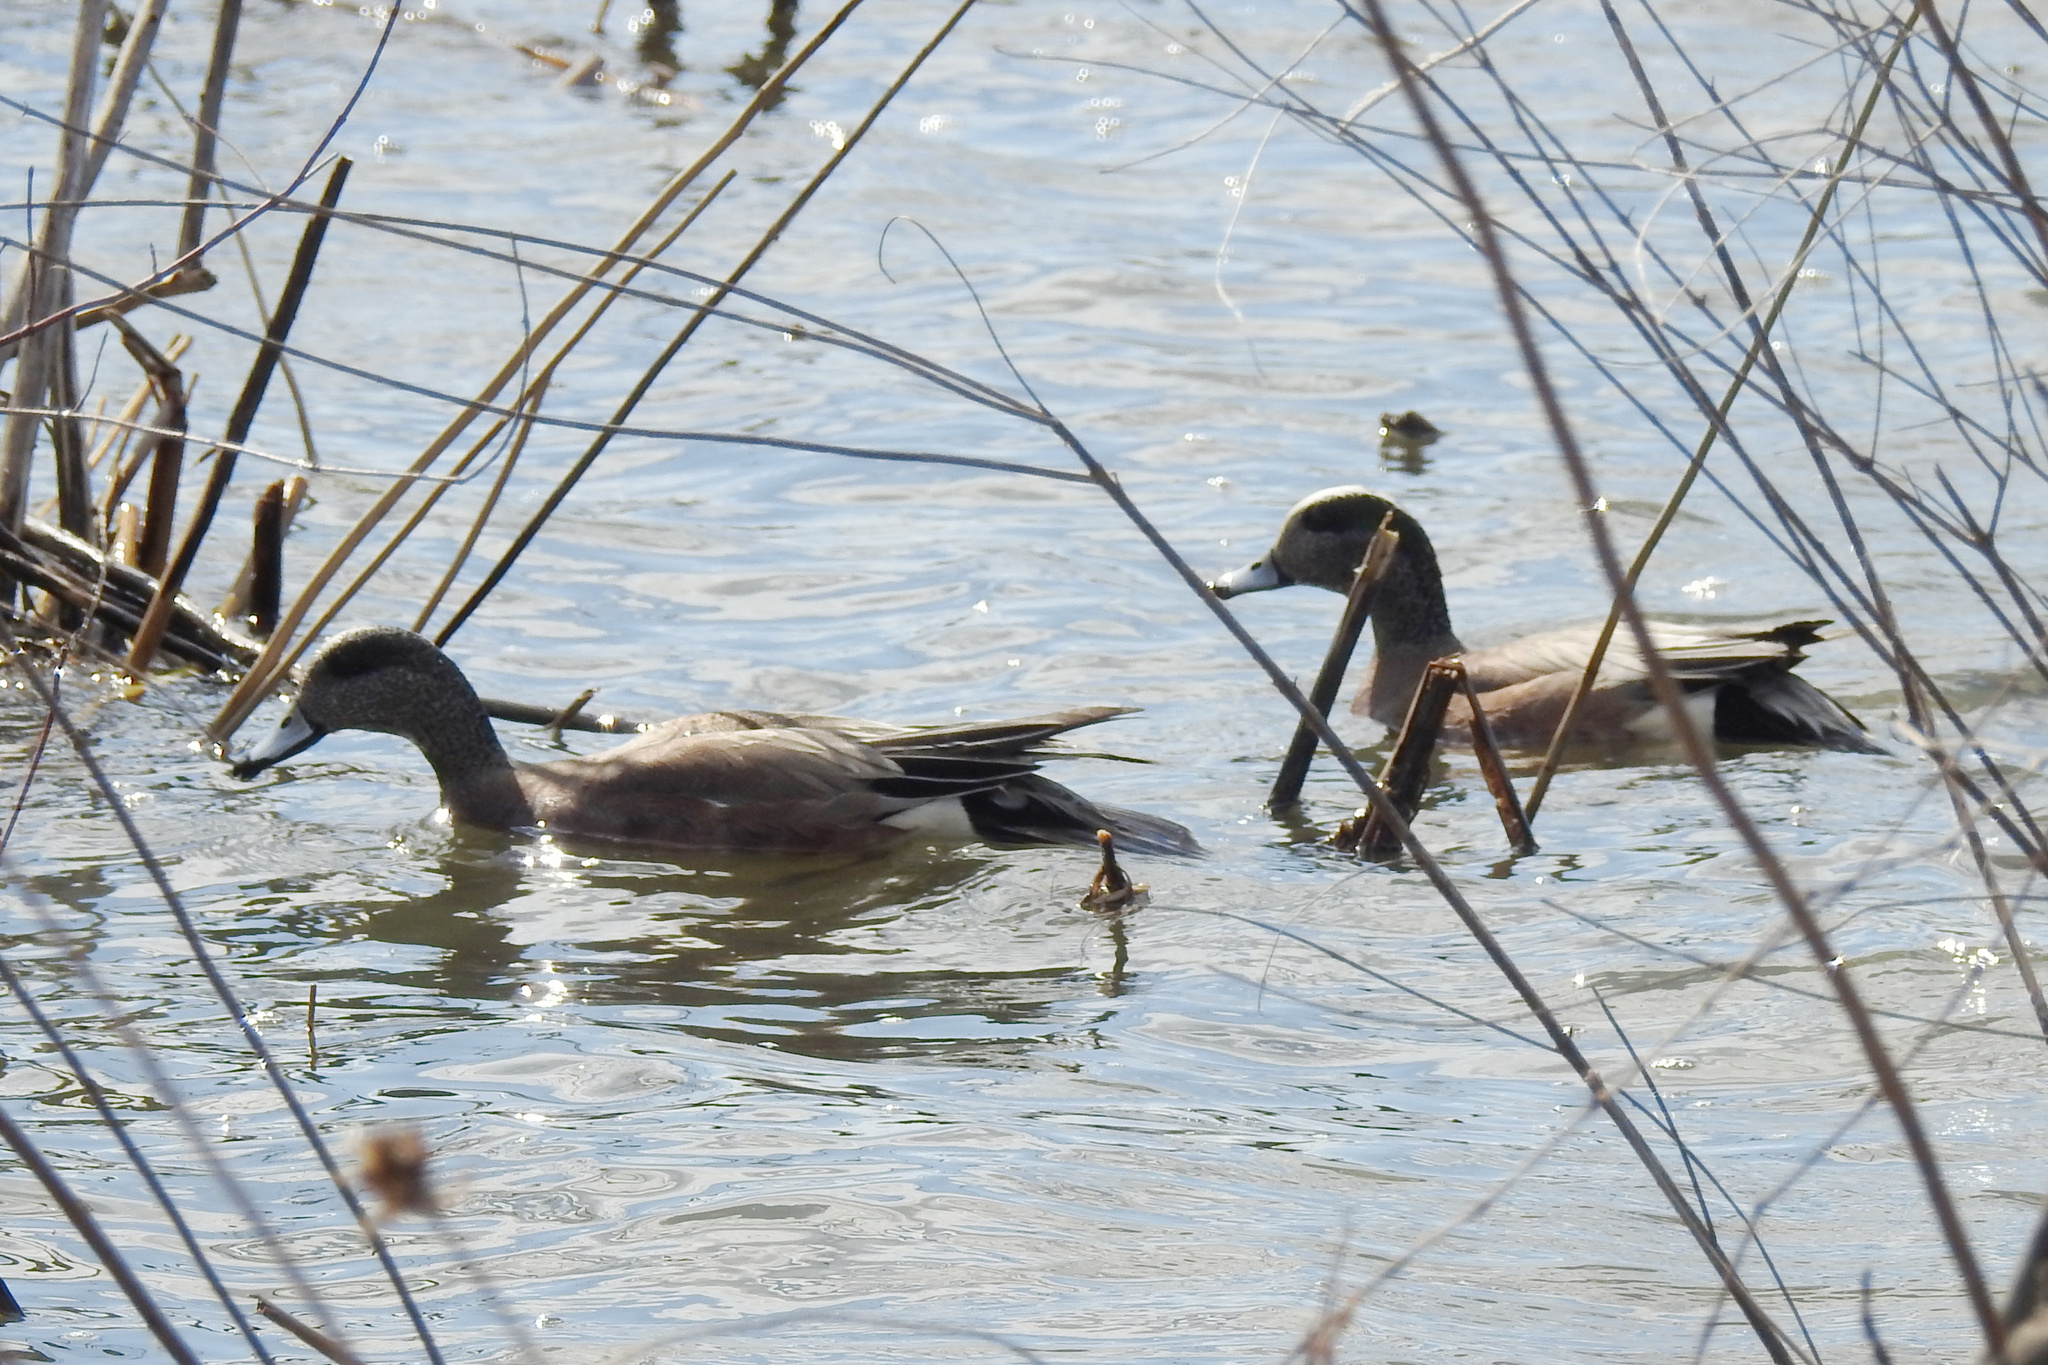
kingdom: Animalia
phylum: Chordata
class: Aves
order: Anseriformes
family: Anatidae
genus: Mareca
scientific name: Mareca americana
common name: American wigeon
